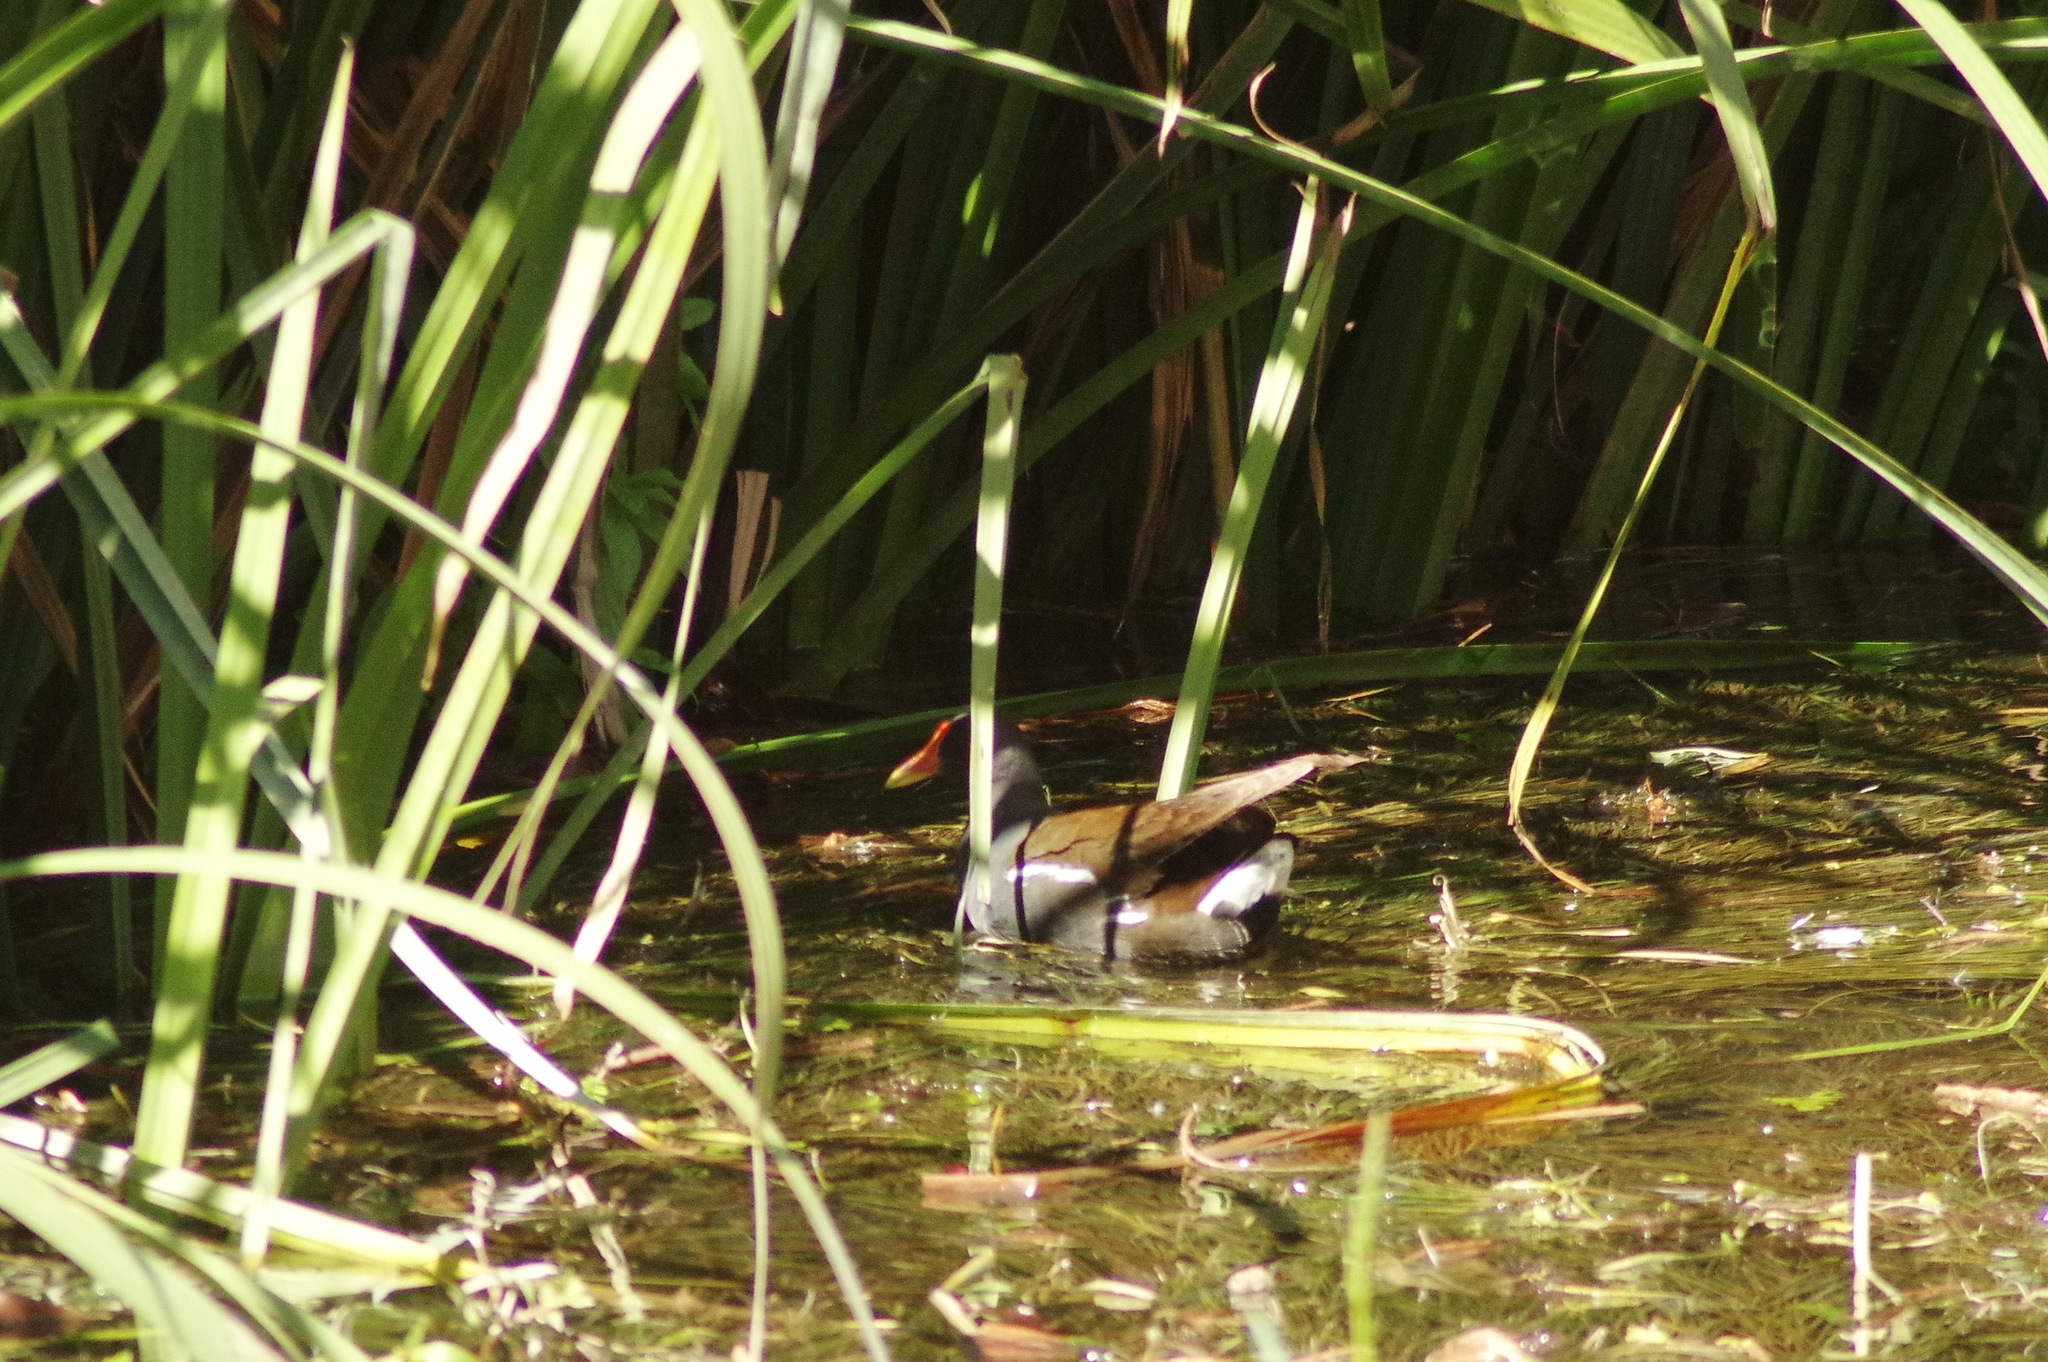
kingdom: Animalia
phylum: Chordata
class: Aves
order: Gruiformes
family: Rallidae
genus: Gallinula
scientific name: Gallinula chloropus
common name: Common moorhen
